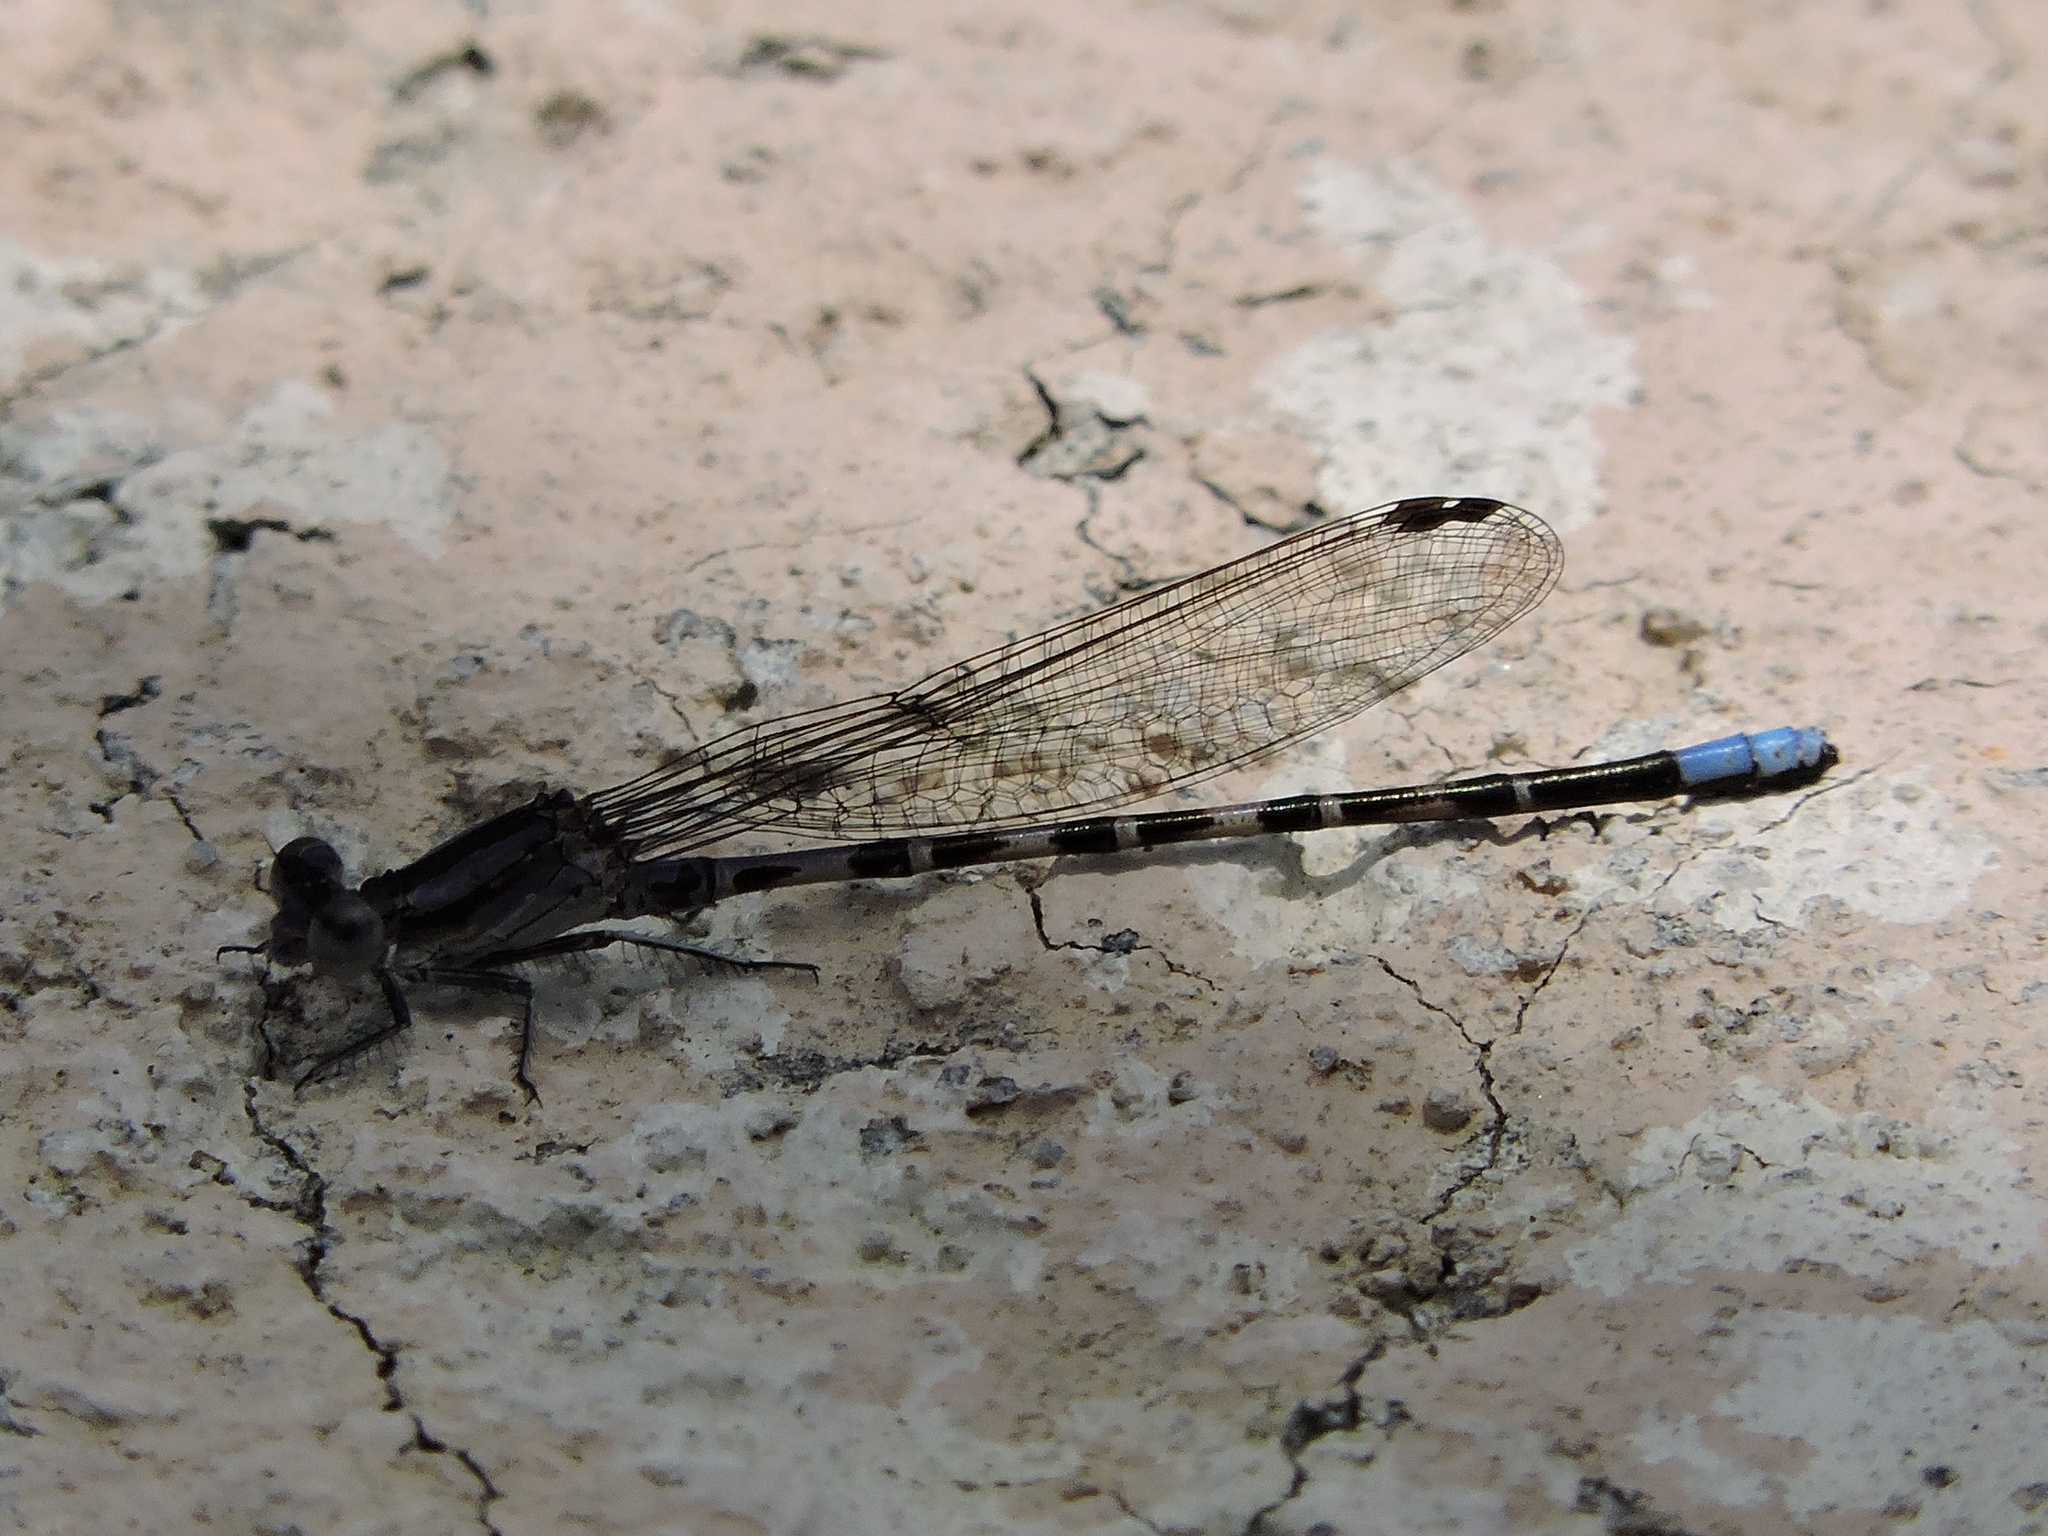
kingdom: Animalia
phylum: Arthropoda
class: Insecta
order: Odonata
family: Coenagrionidae
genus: Argia
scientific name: Argia immunda
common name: Kiowa dancer
